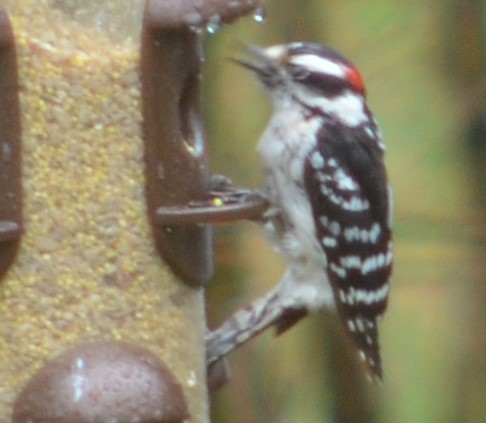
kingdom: Animalia
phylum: Chordata
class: Aves
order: Piciformes
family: Picidae
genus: Dryobates
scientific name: Dryobates pubescens
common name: Downy woodpecker
